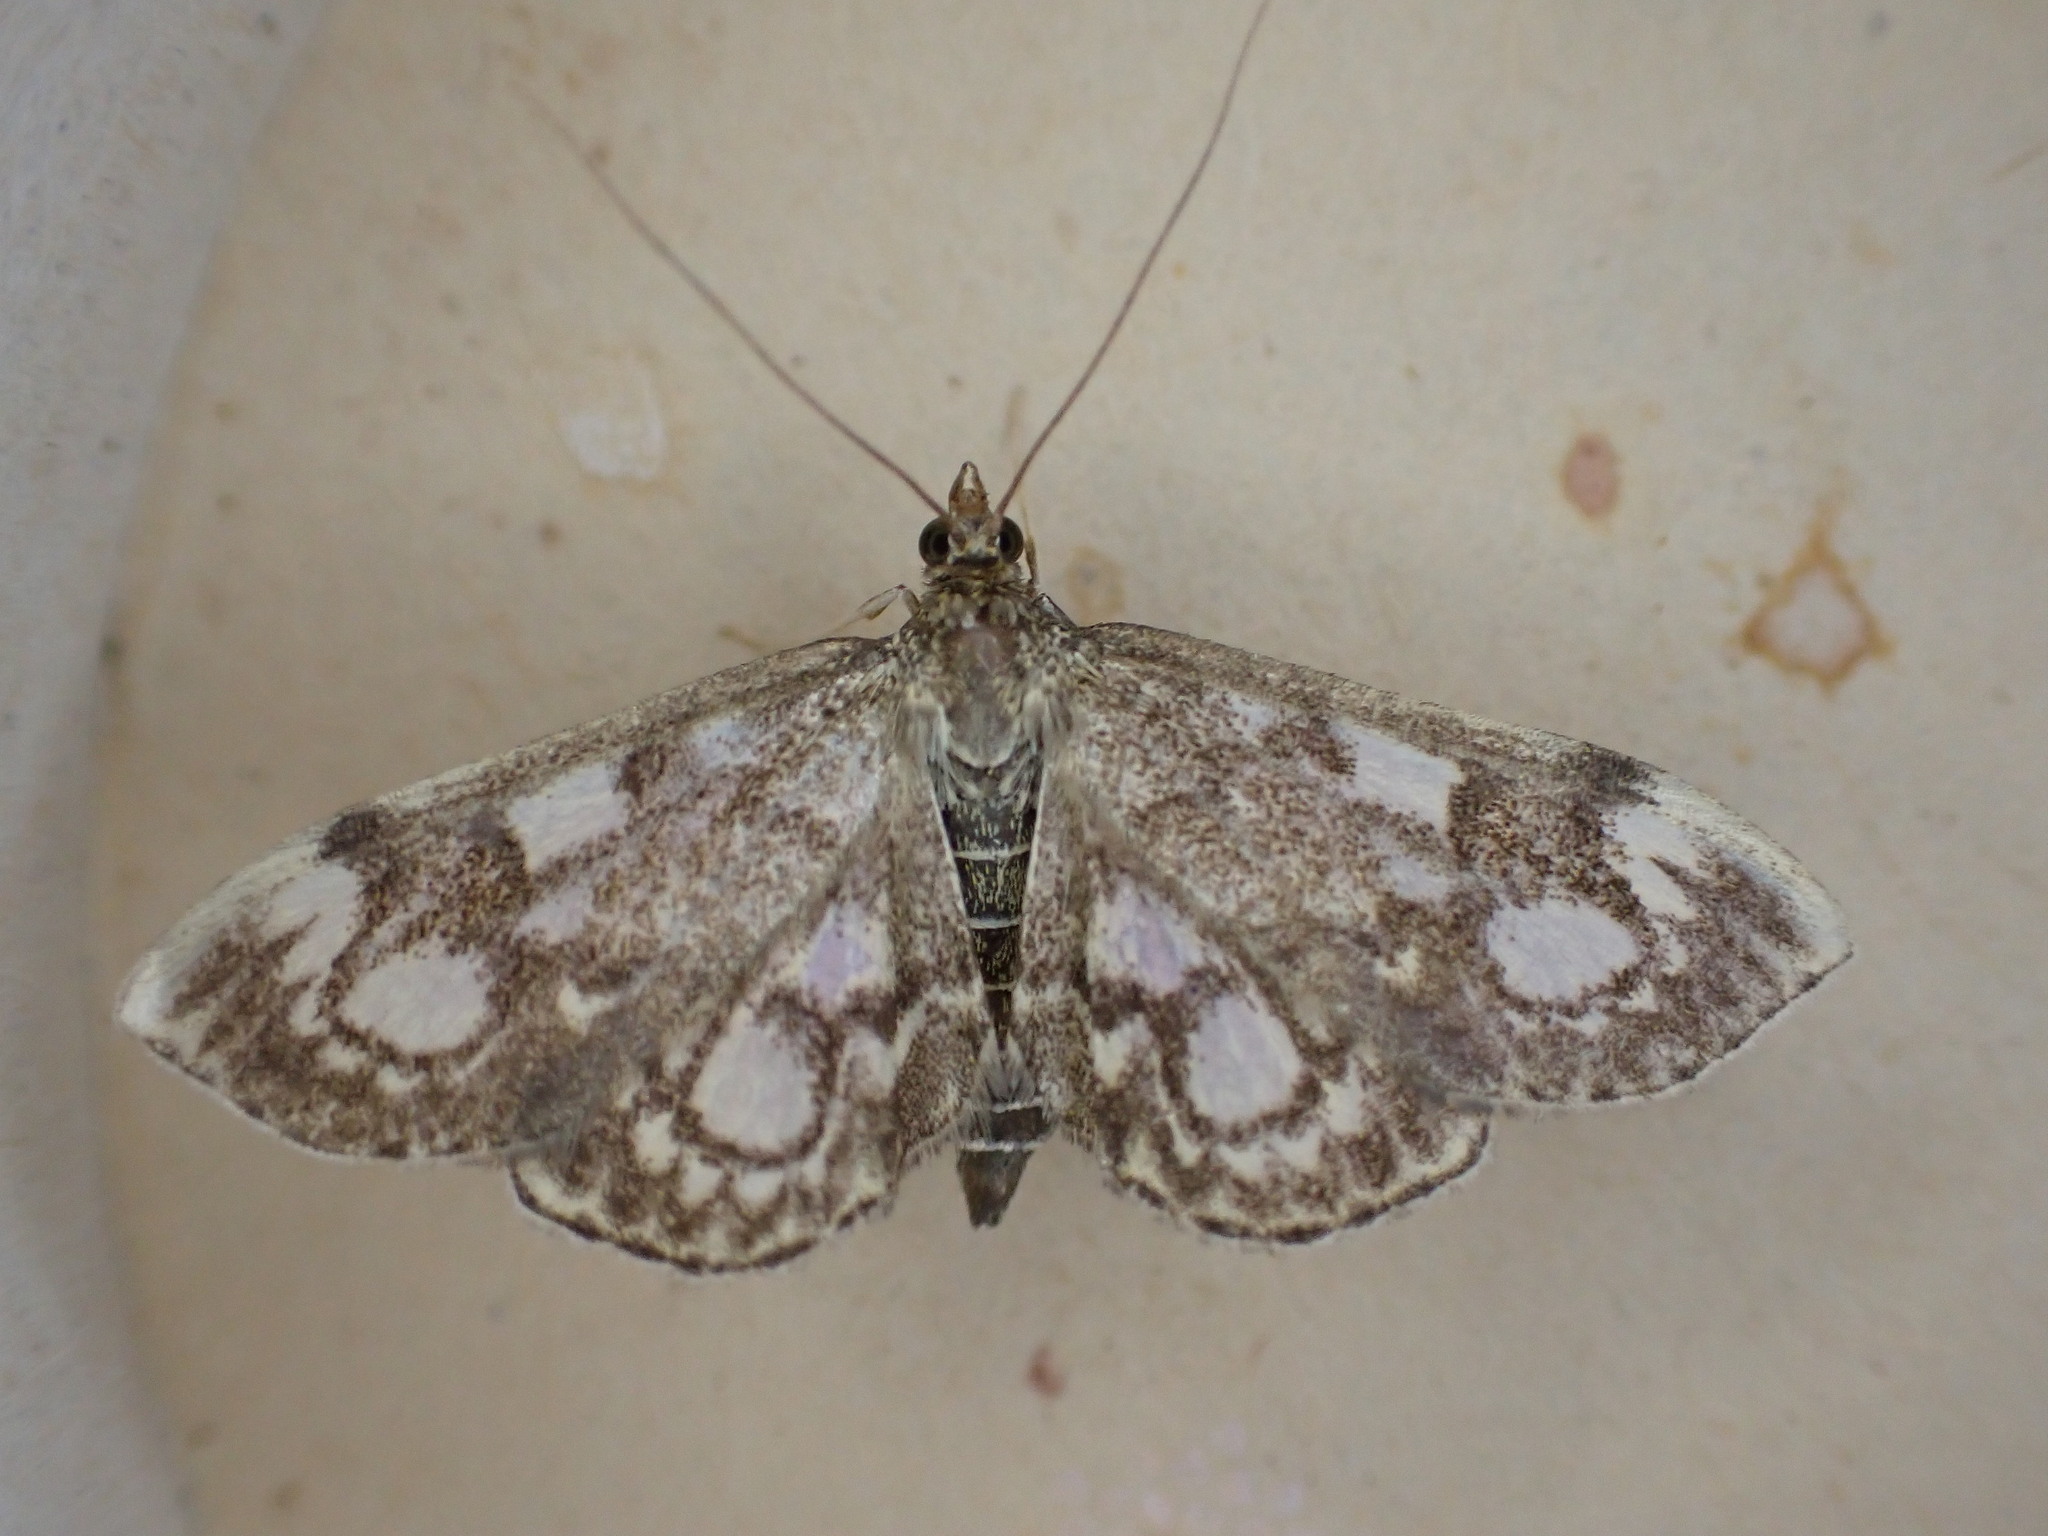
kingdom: Animalia
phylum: Arthropoda
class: Insecta
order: Lepidoptera
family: Crambidae
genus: Anania
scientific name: Anania coronata
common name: Elder pearl
